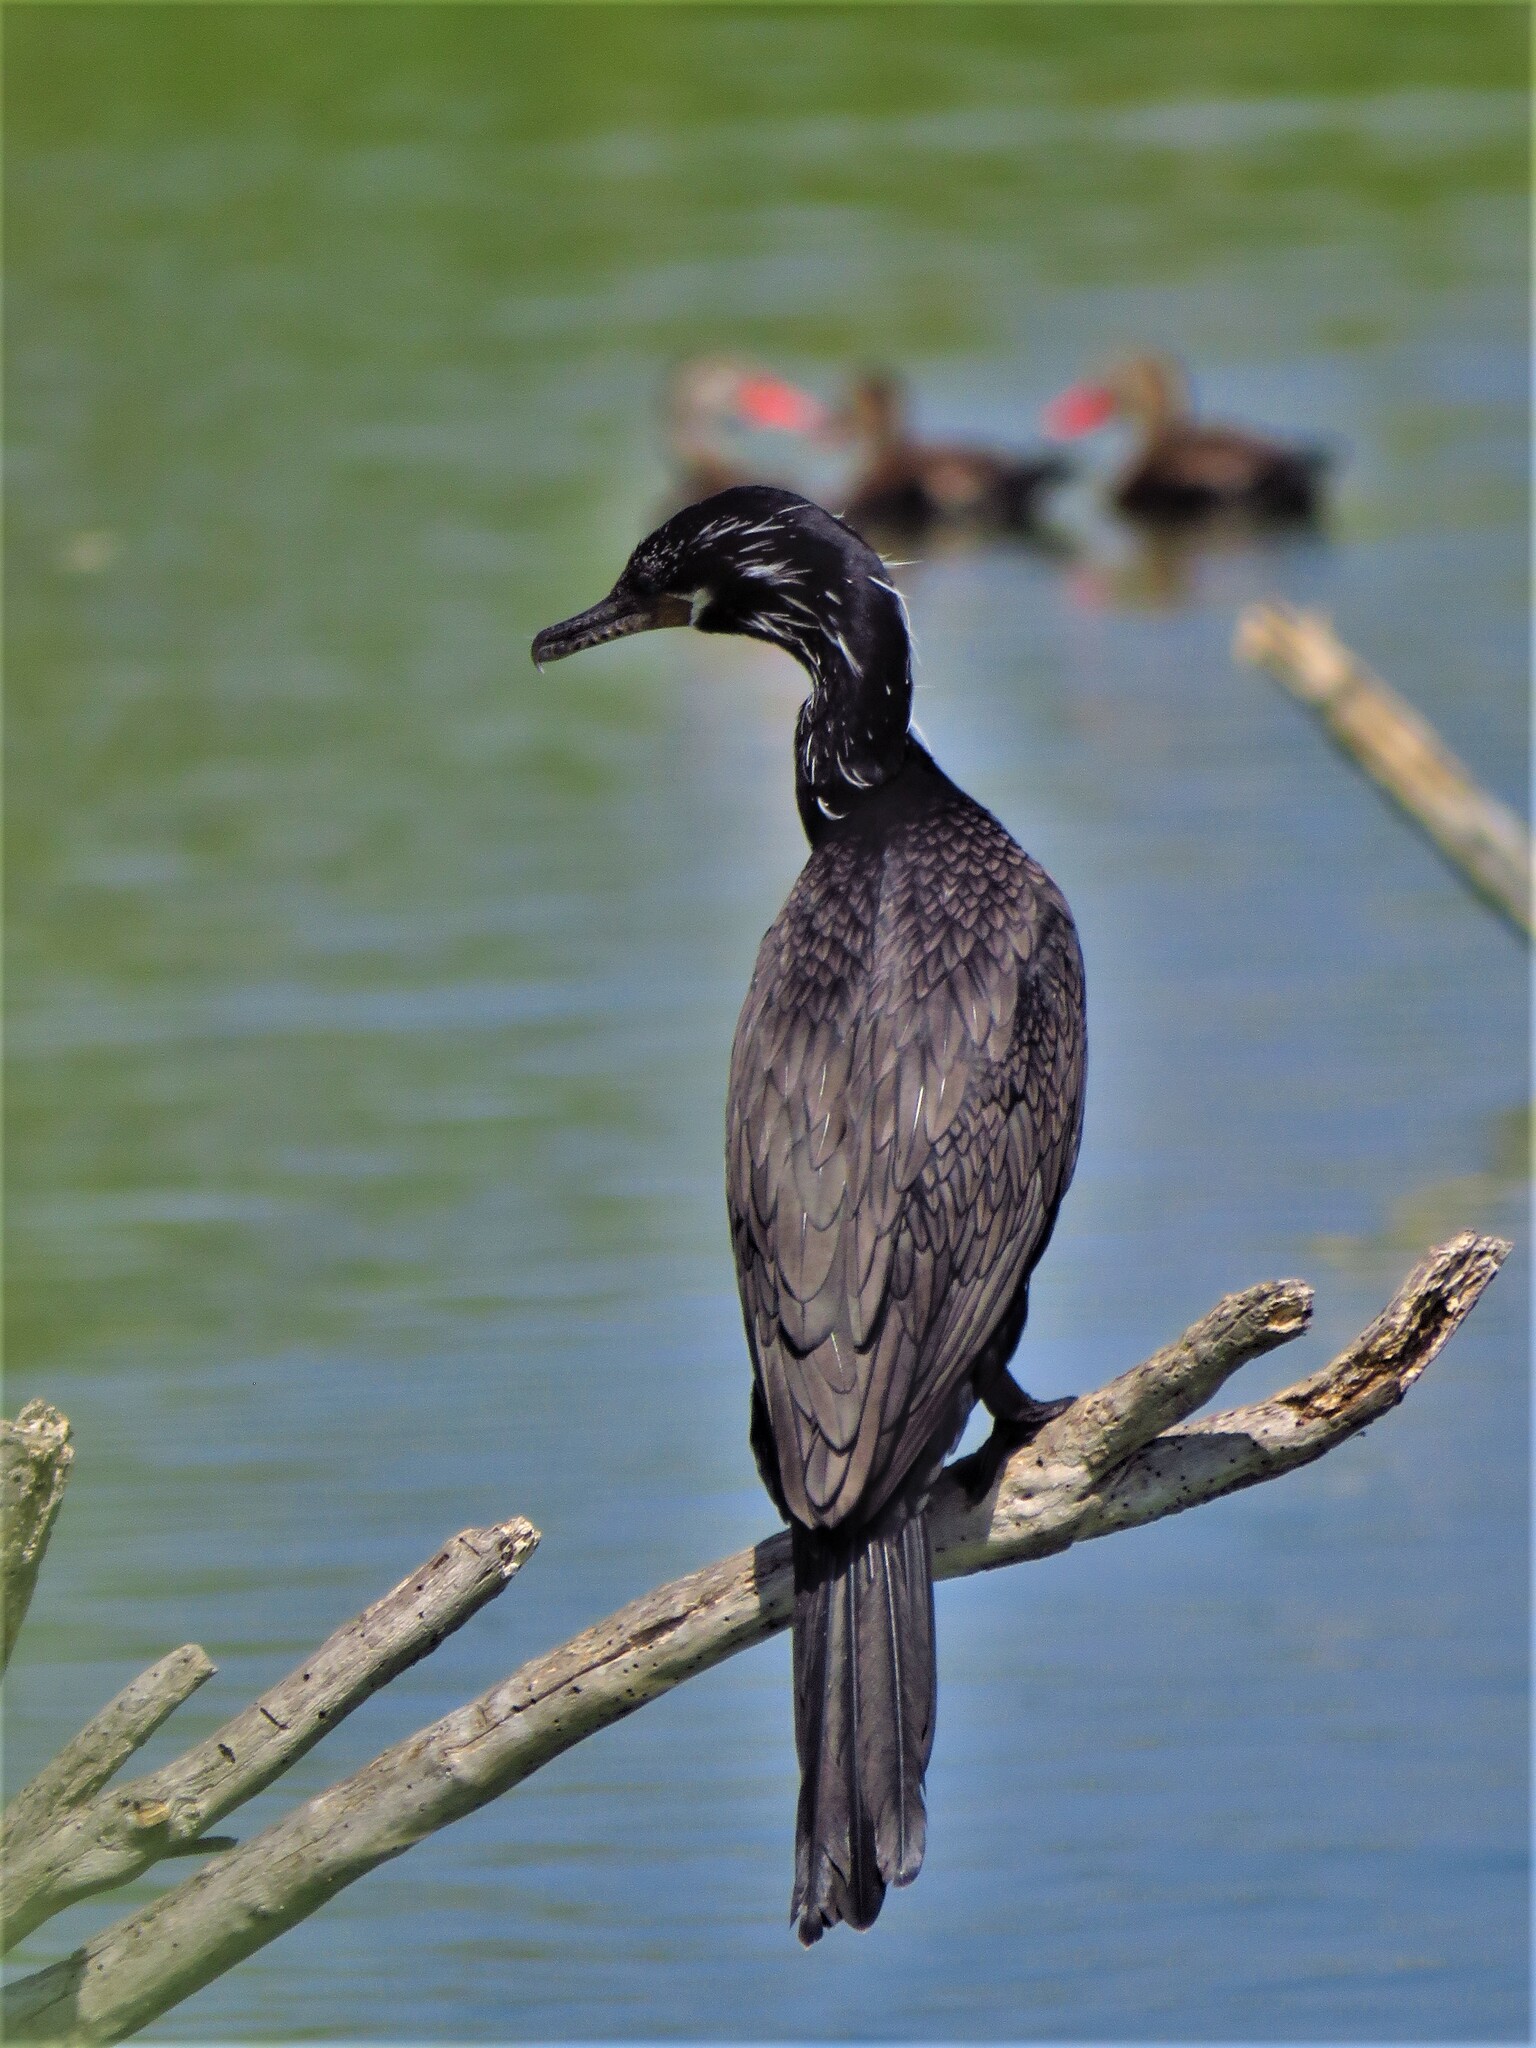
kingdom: Animalia
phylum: Chordata
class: Aves
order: Suliformes
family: Phalacrocoracidae
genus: Phalacrocorax
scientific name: Phalacrocorax brasilianus
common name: Neotropic cormorant
